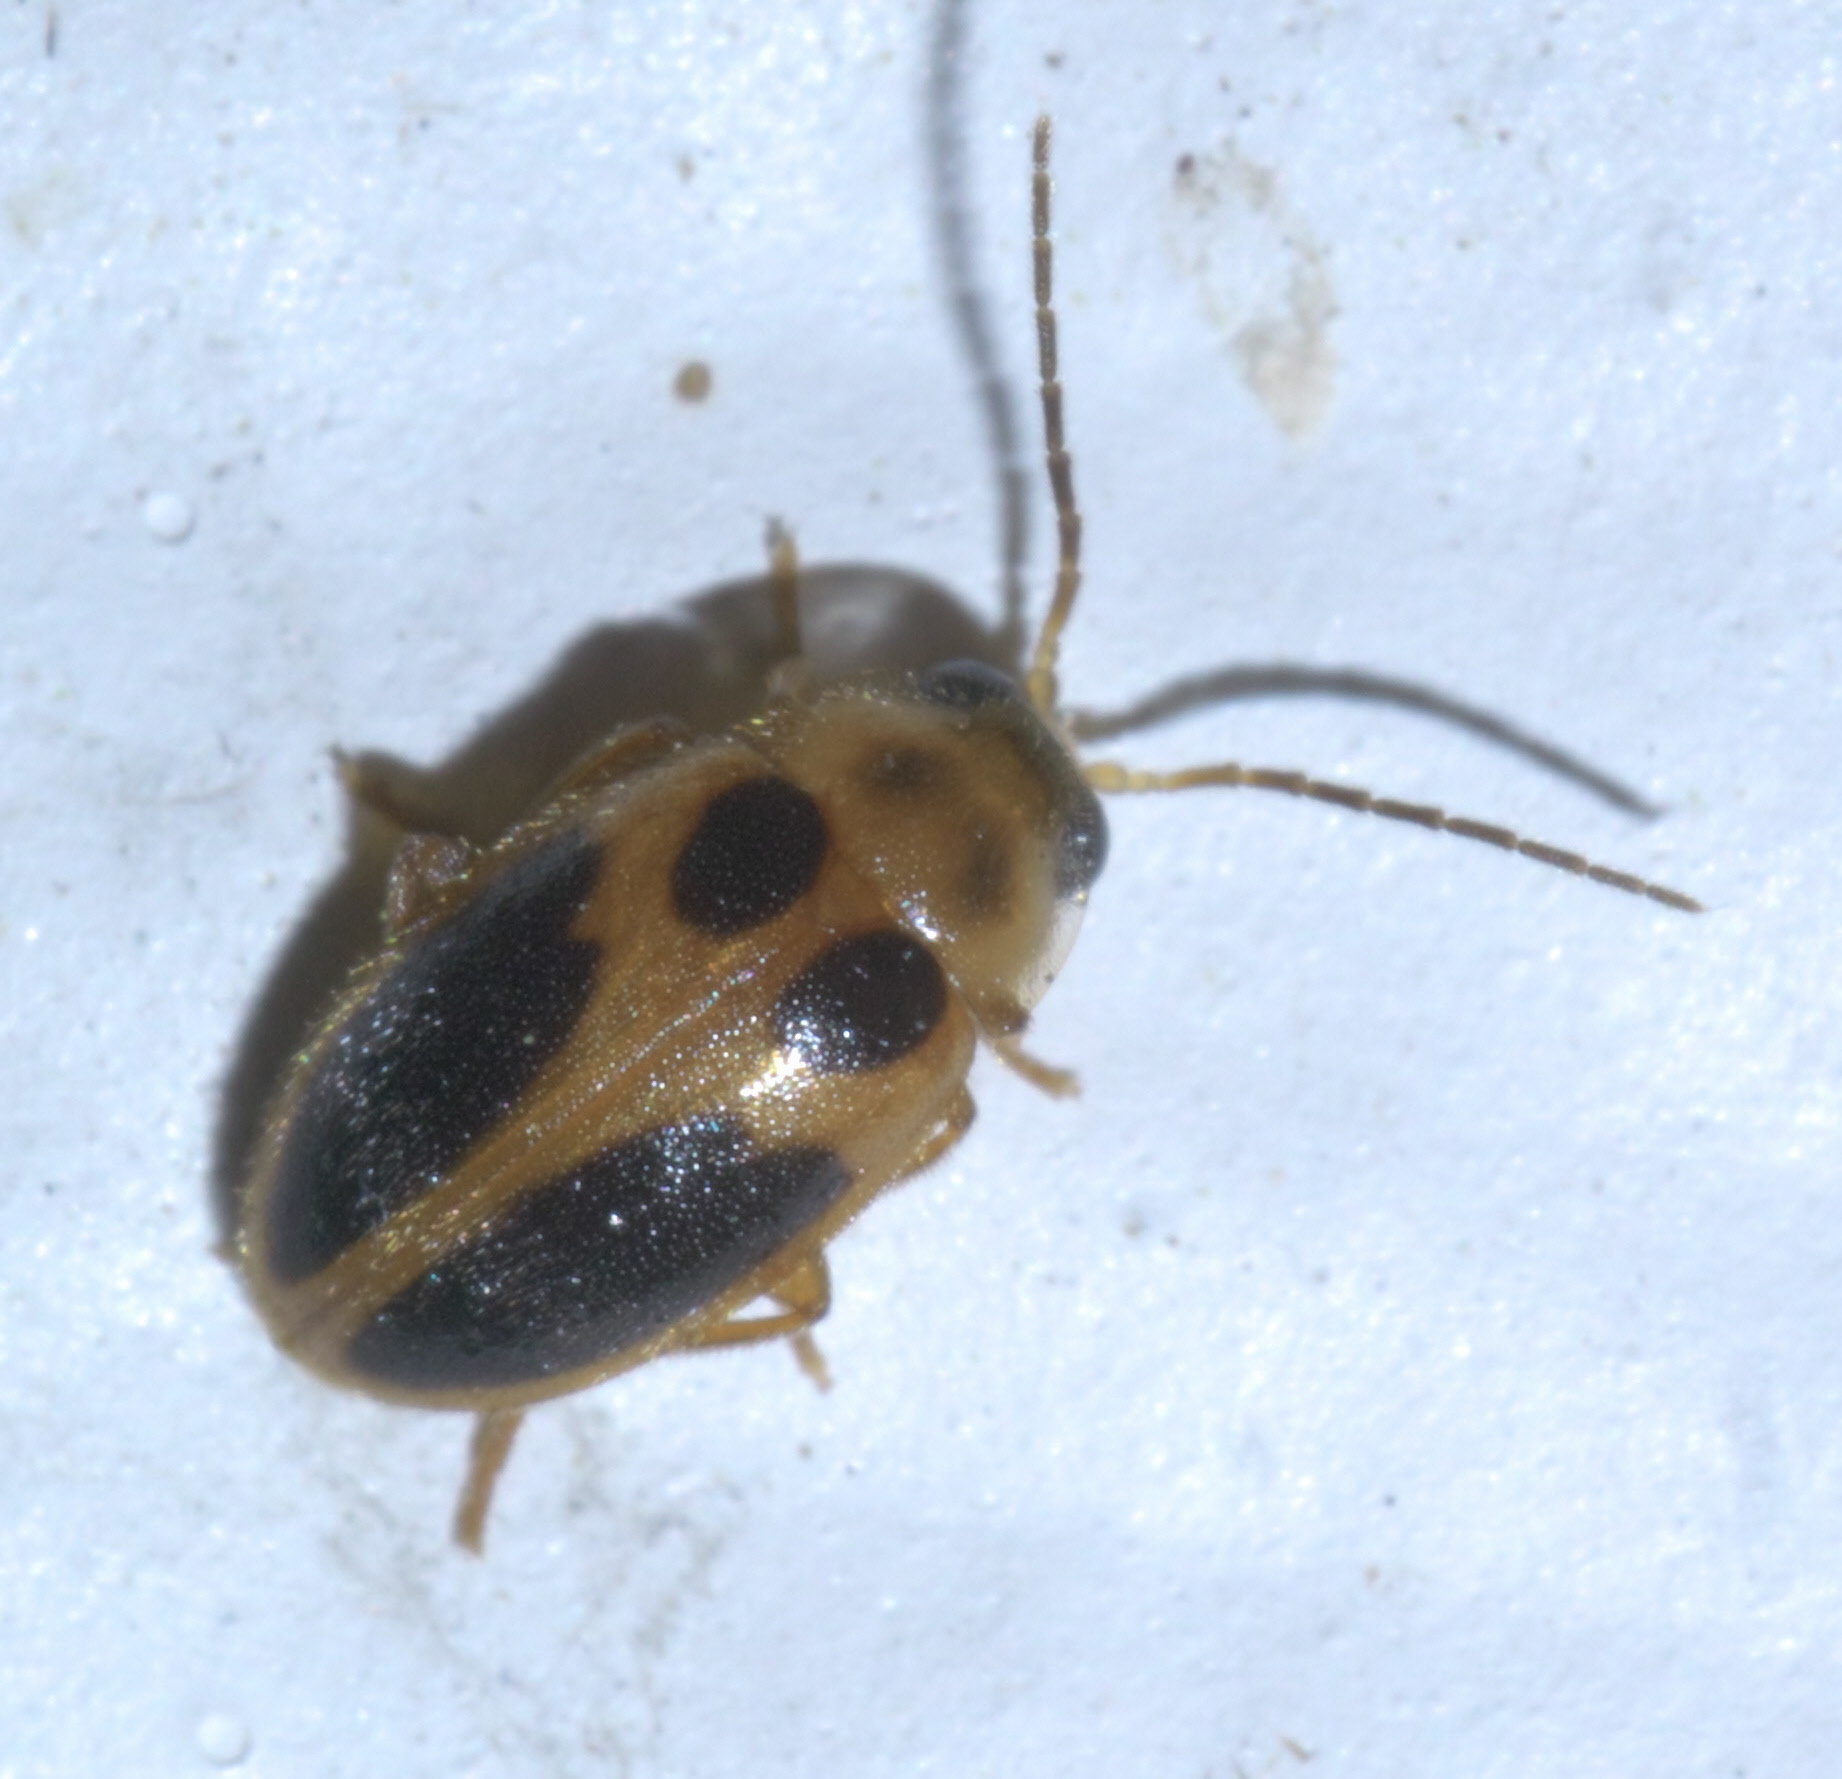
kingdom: Animalia
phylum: Arthropoda
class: Insecta
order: Coleoptera
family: Scirtidae
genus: Sacodes
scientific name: Sacodes pulchella
